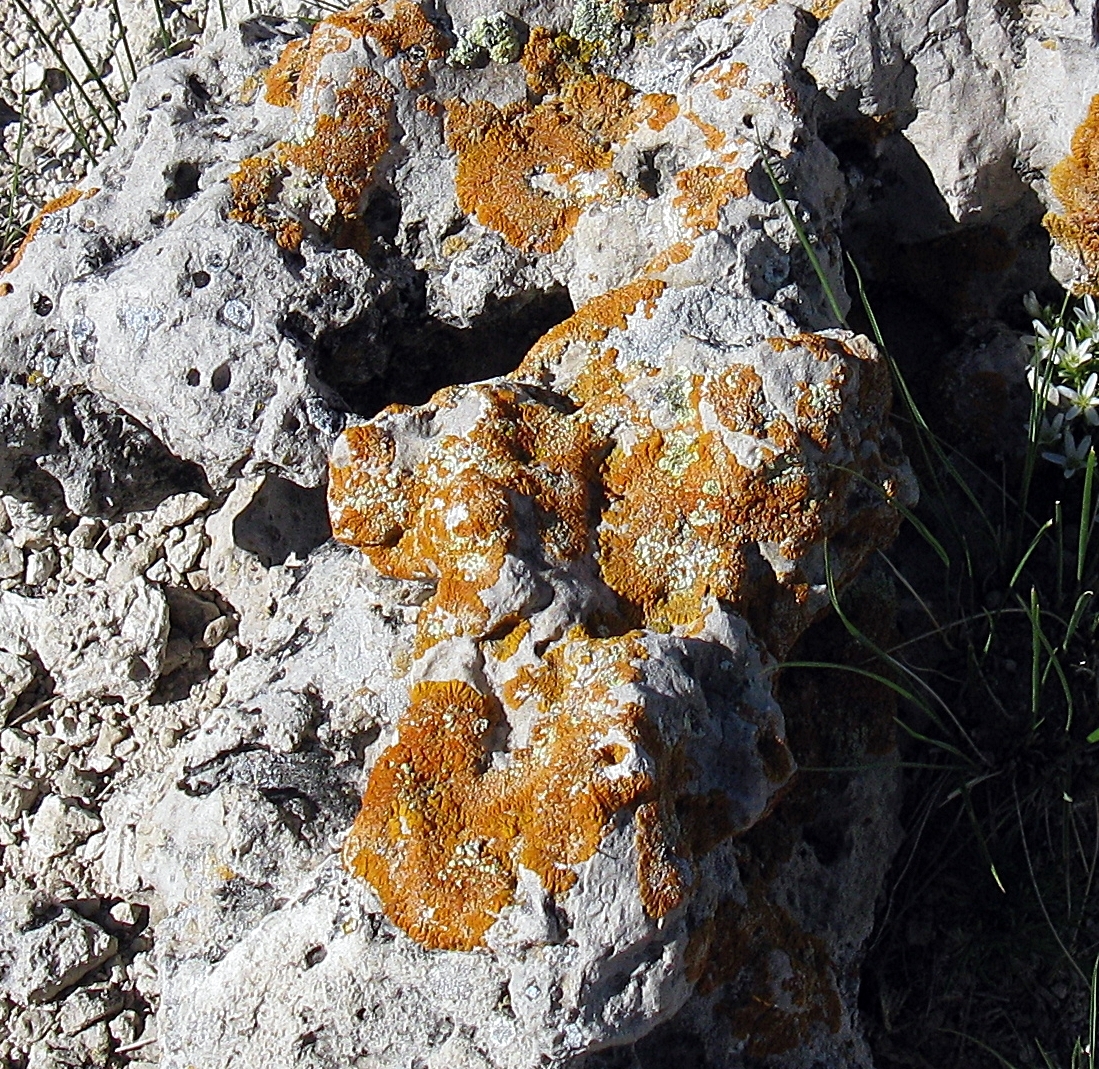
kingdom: Fungi
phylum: Ascomycota
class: Lecanoromycetes
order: Teloschistales
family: Teloschistaceae
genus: Golubkovia
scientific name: Golubkovia trachyphylla
